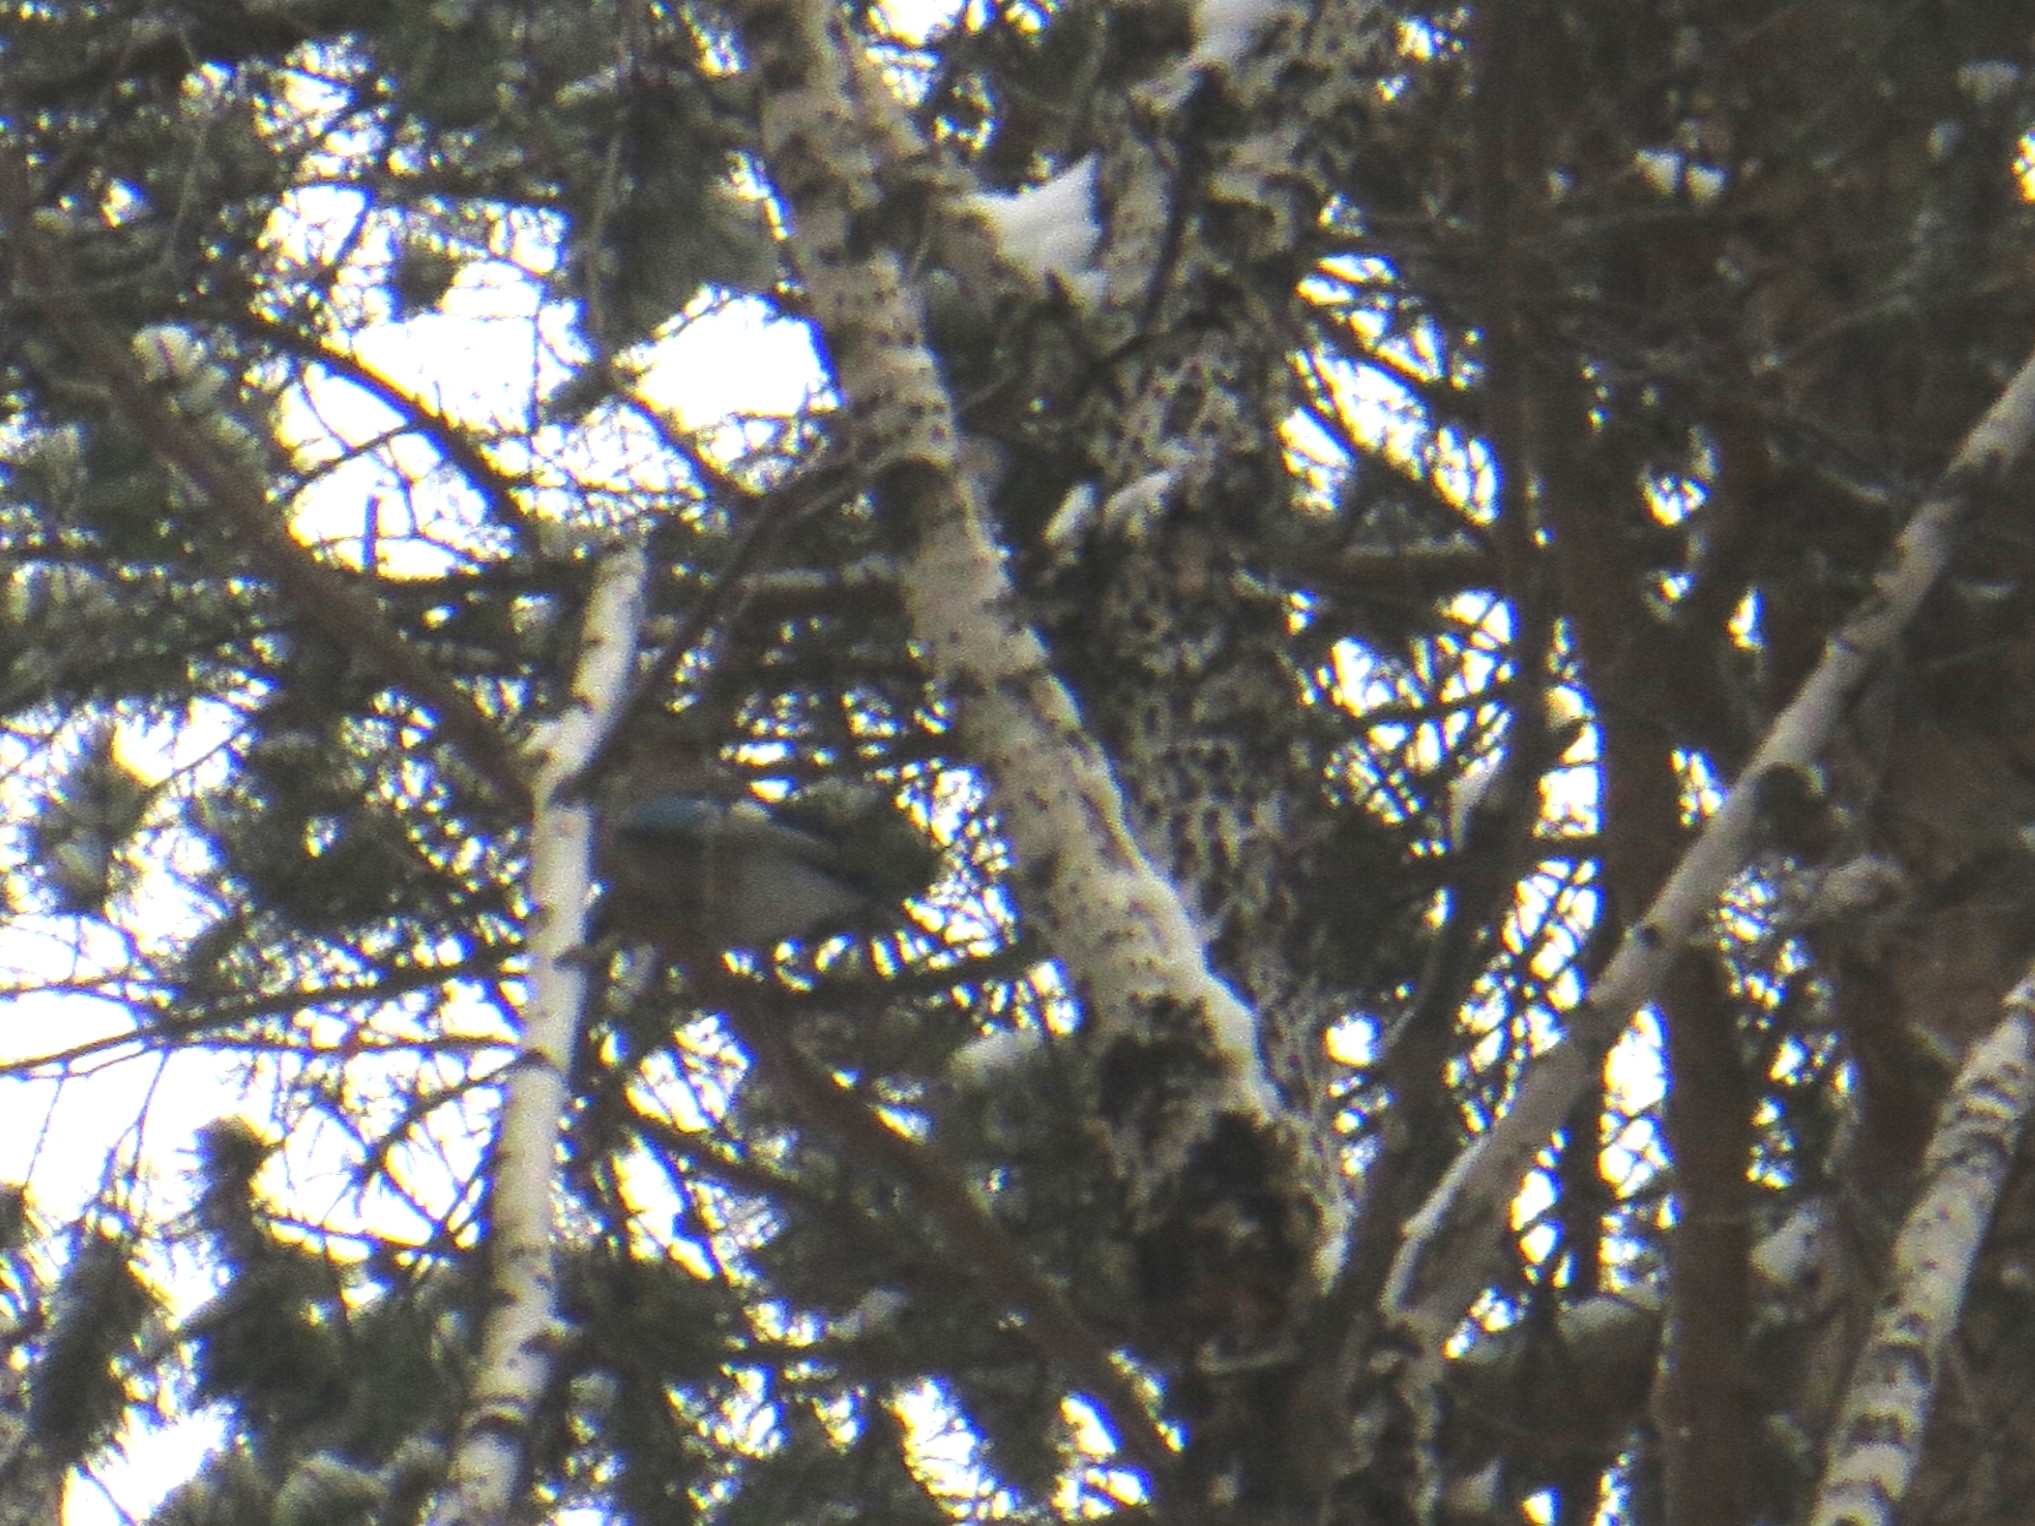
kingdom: Animalia
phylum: Chordata
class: Aves
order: Passeriformes
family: Corvidae
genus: Garrulus
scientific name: Garrulus glandarius
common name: Eurasian jay
